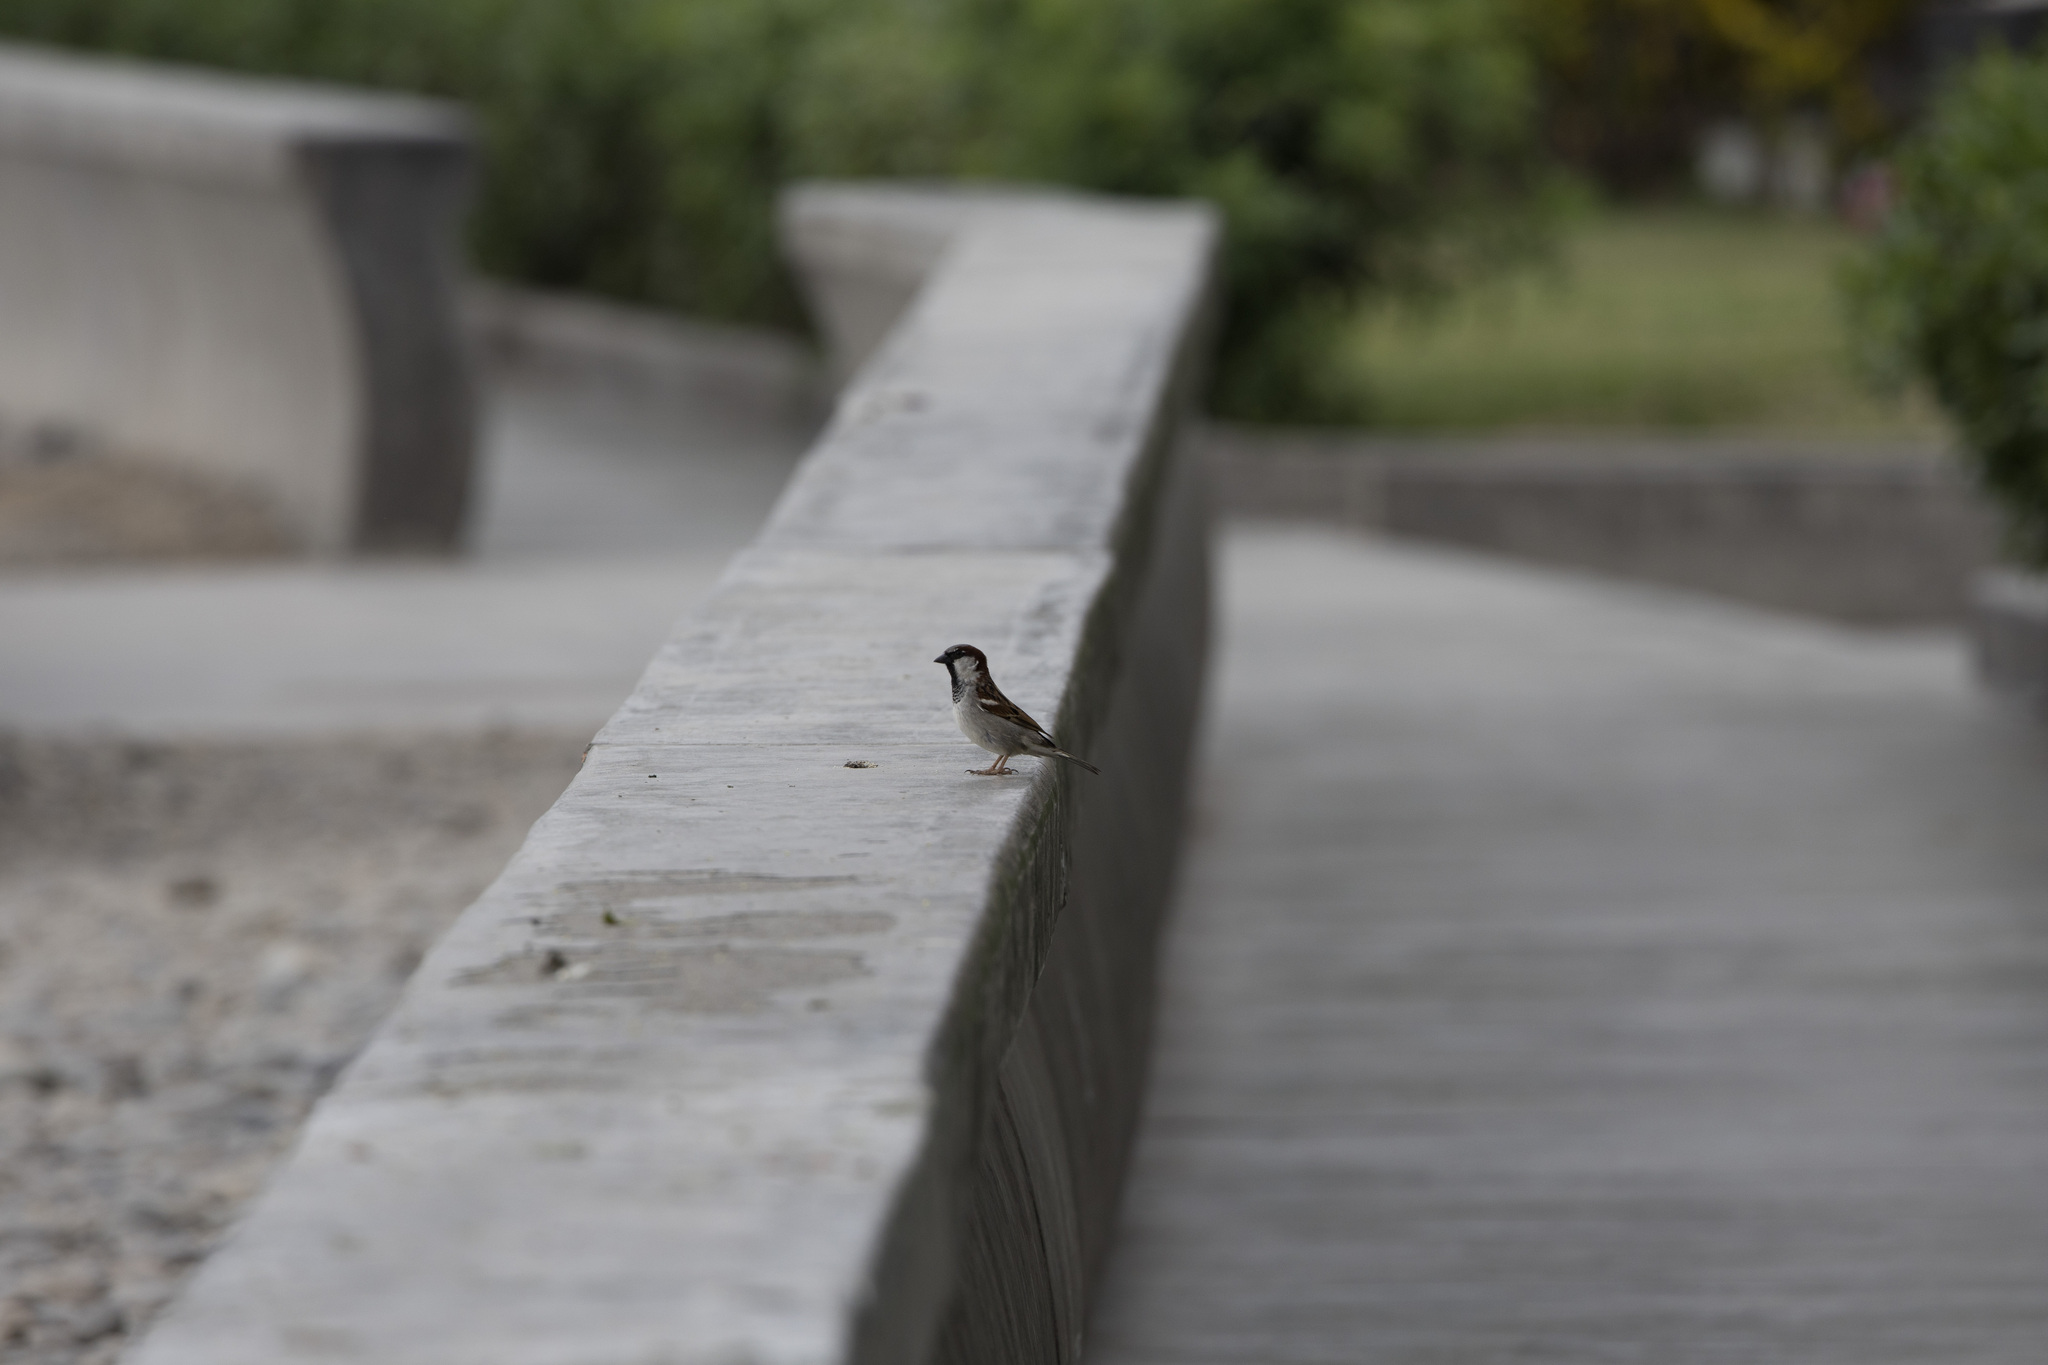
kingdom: Animalia
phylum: Chordata
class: Aves
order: Passeriformes
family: Passeridae
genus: Passer
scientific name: Passer domesticus
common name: House sparrow
